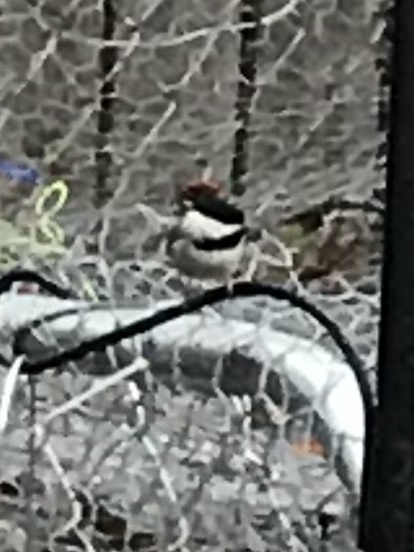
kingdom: Animalia
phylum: Chordata
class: Aves
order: Passeriformes
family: Paridae
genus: Poecile
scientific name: Poecile carolinensis
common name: Carolina chickadee
